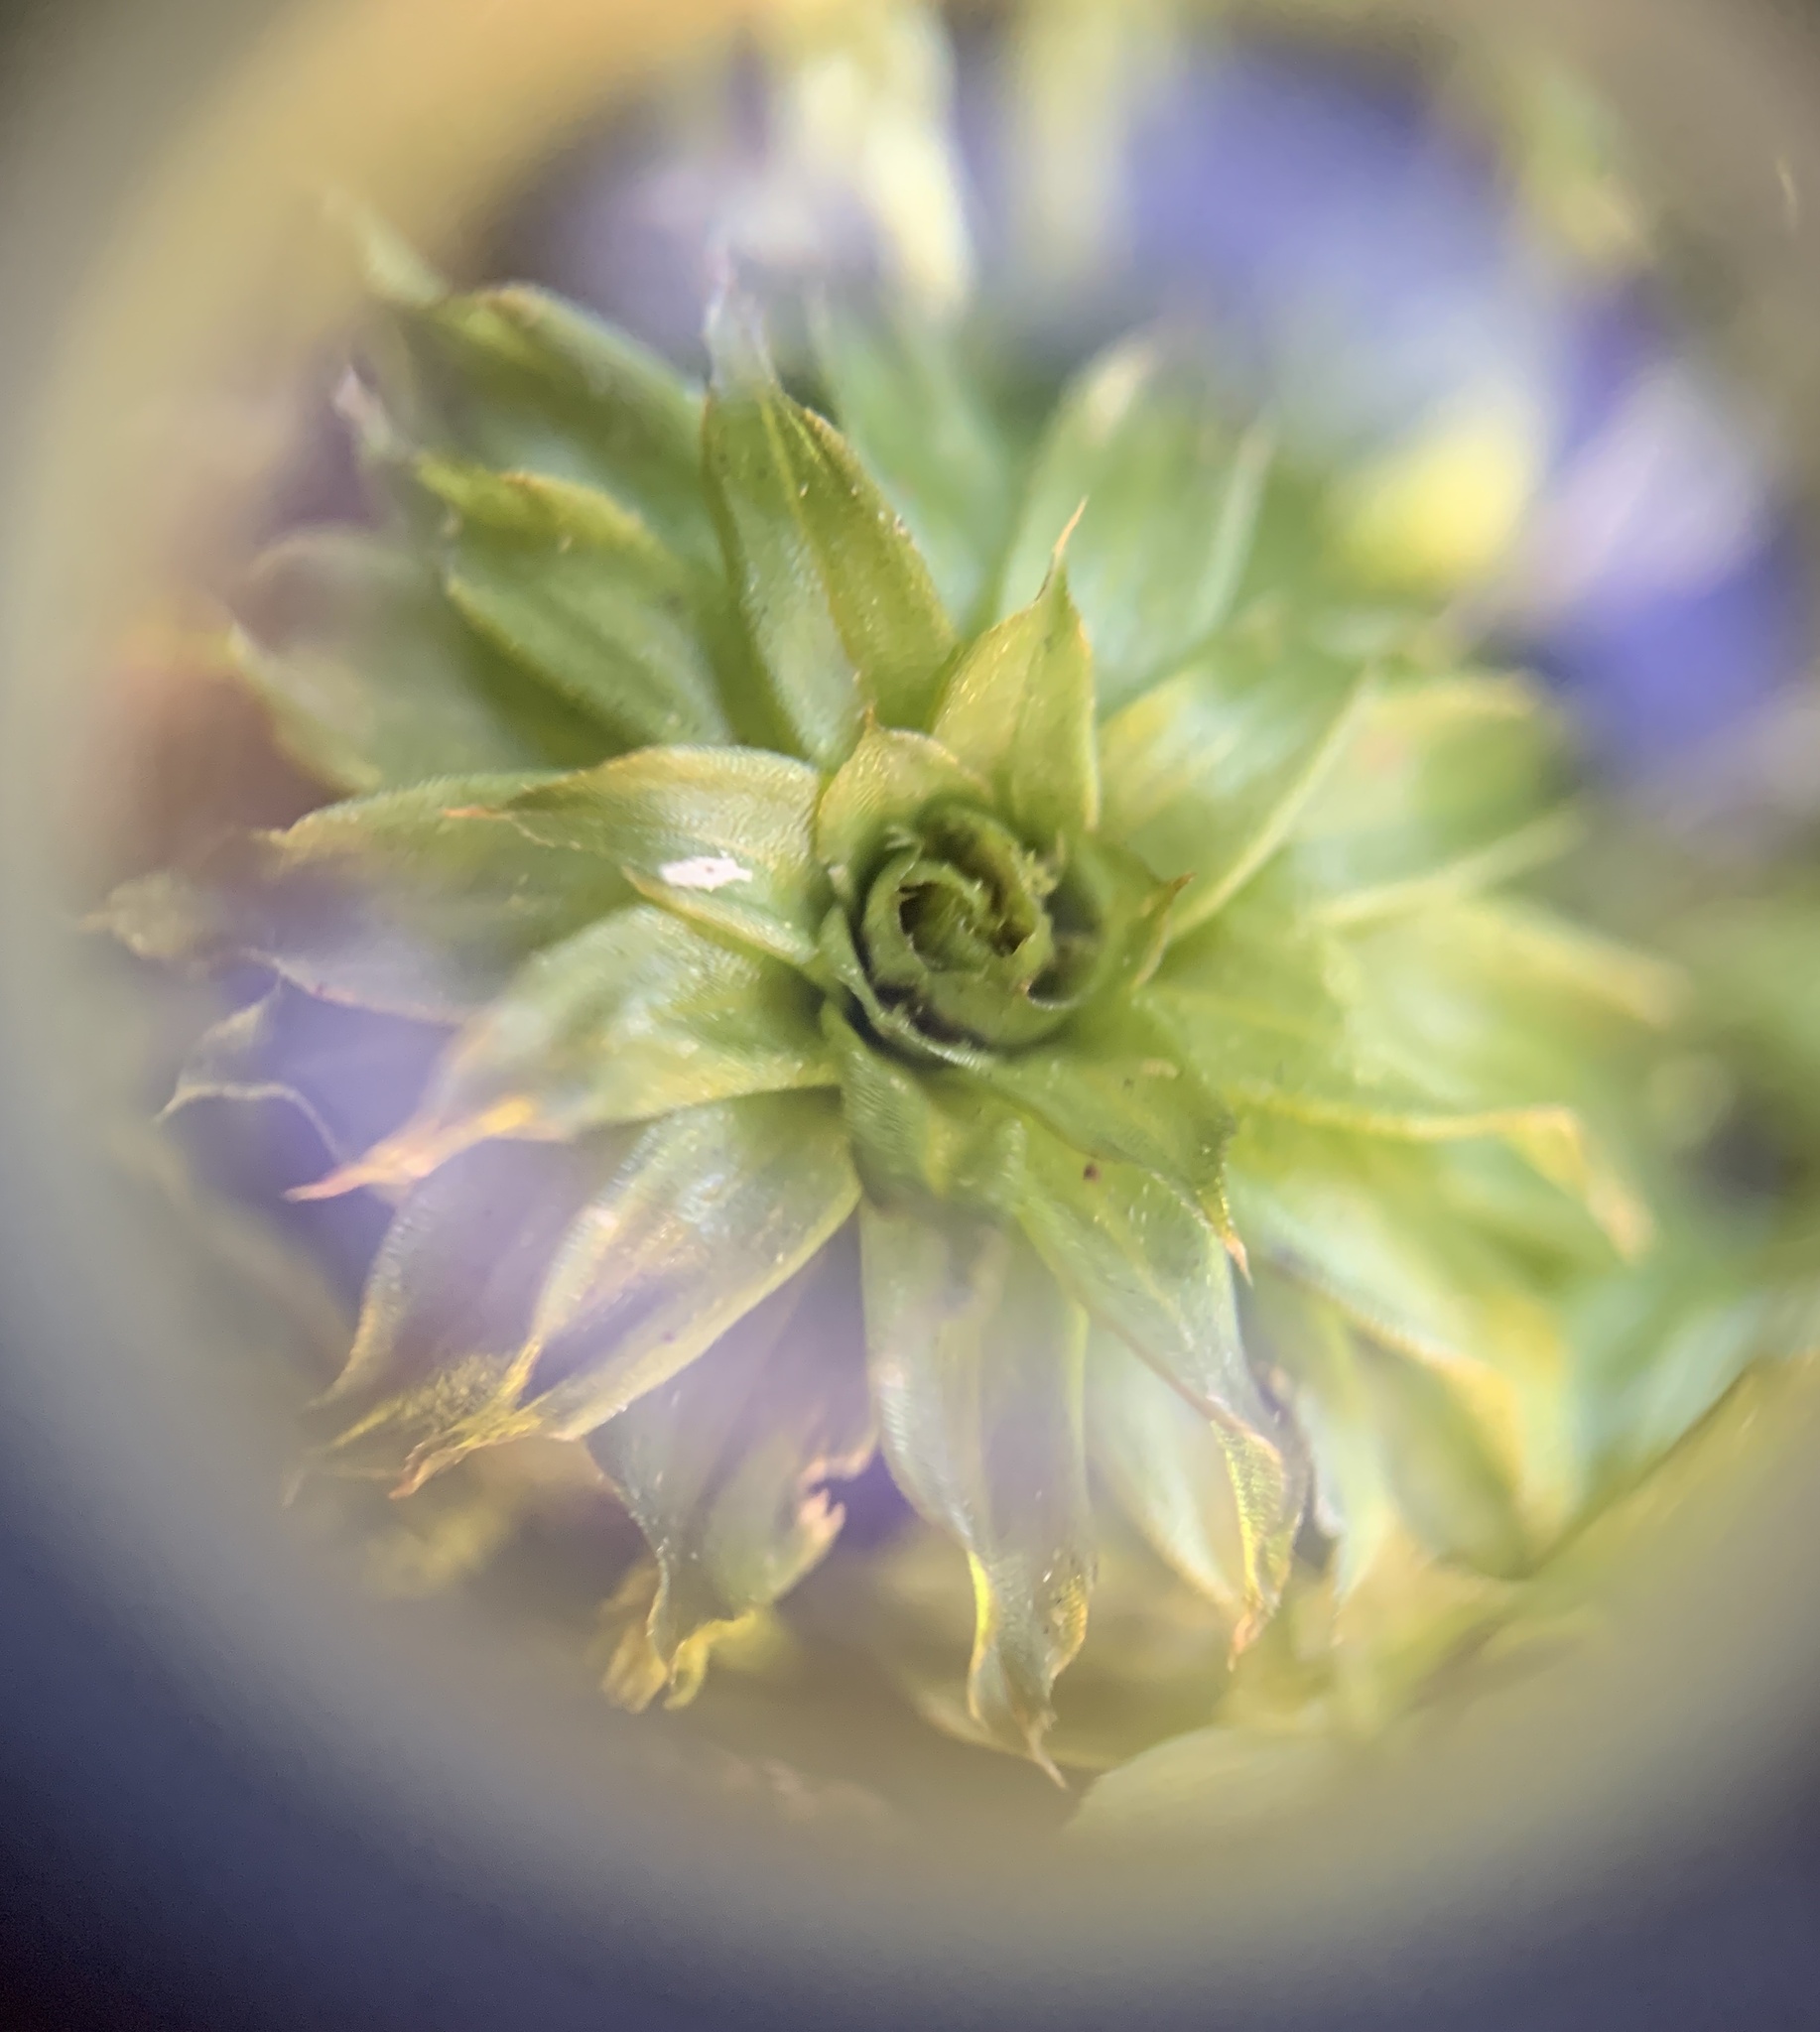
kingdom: Plantae
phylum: Bryophyta
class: Bryopsida
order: Bryales
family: Bryaceae
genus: Rhodobryum
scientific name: Rhodobryum ontariense
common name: Ontario rhodobryum moss
